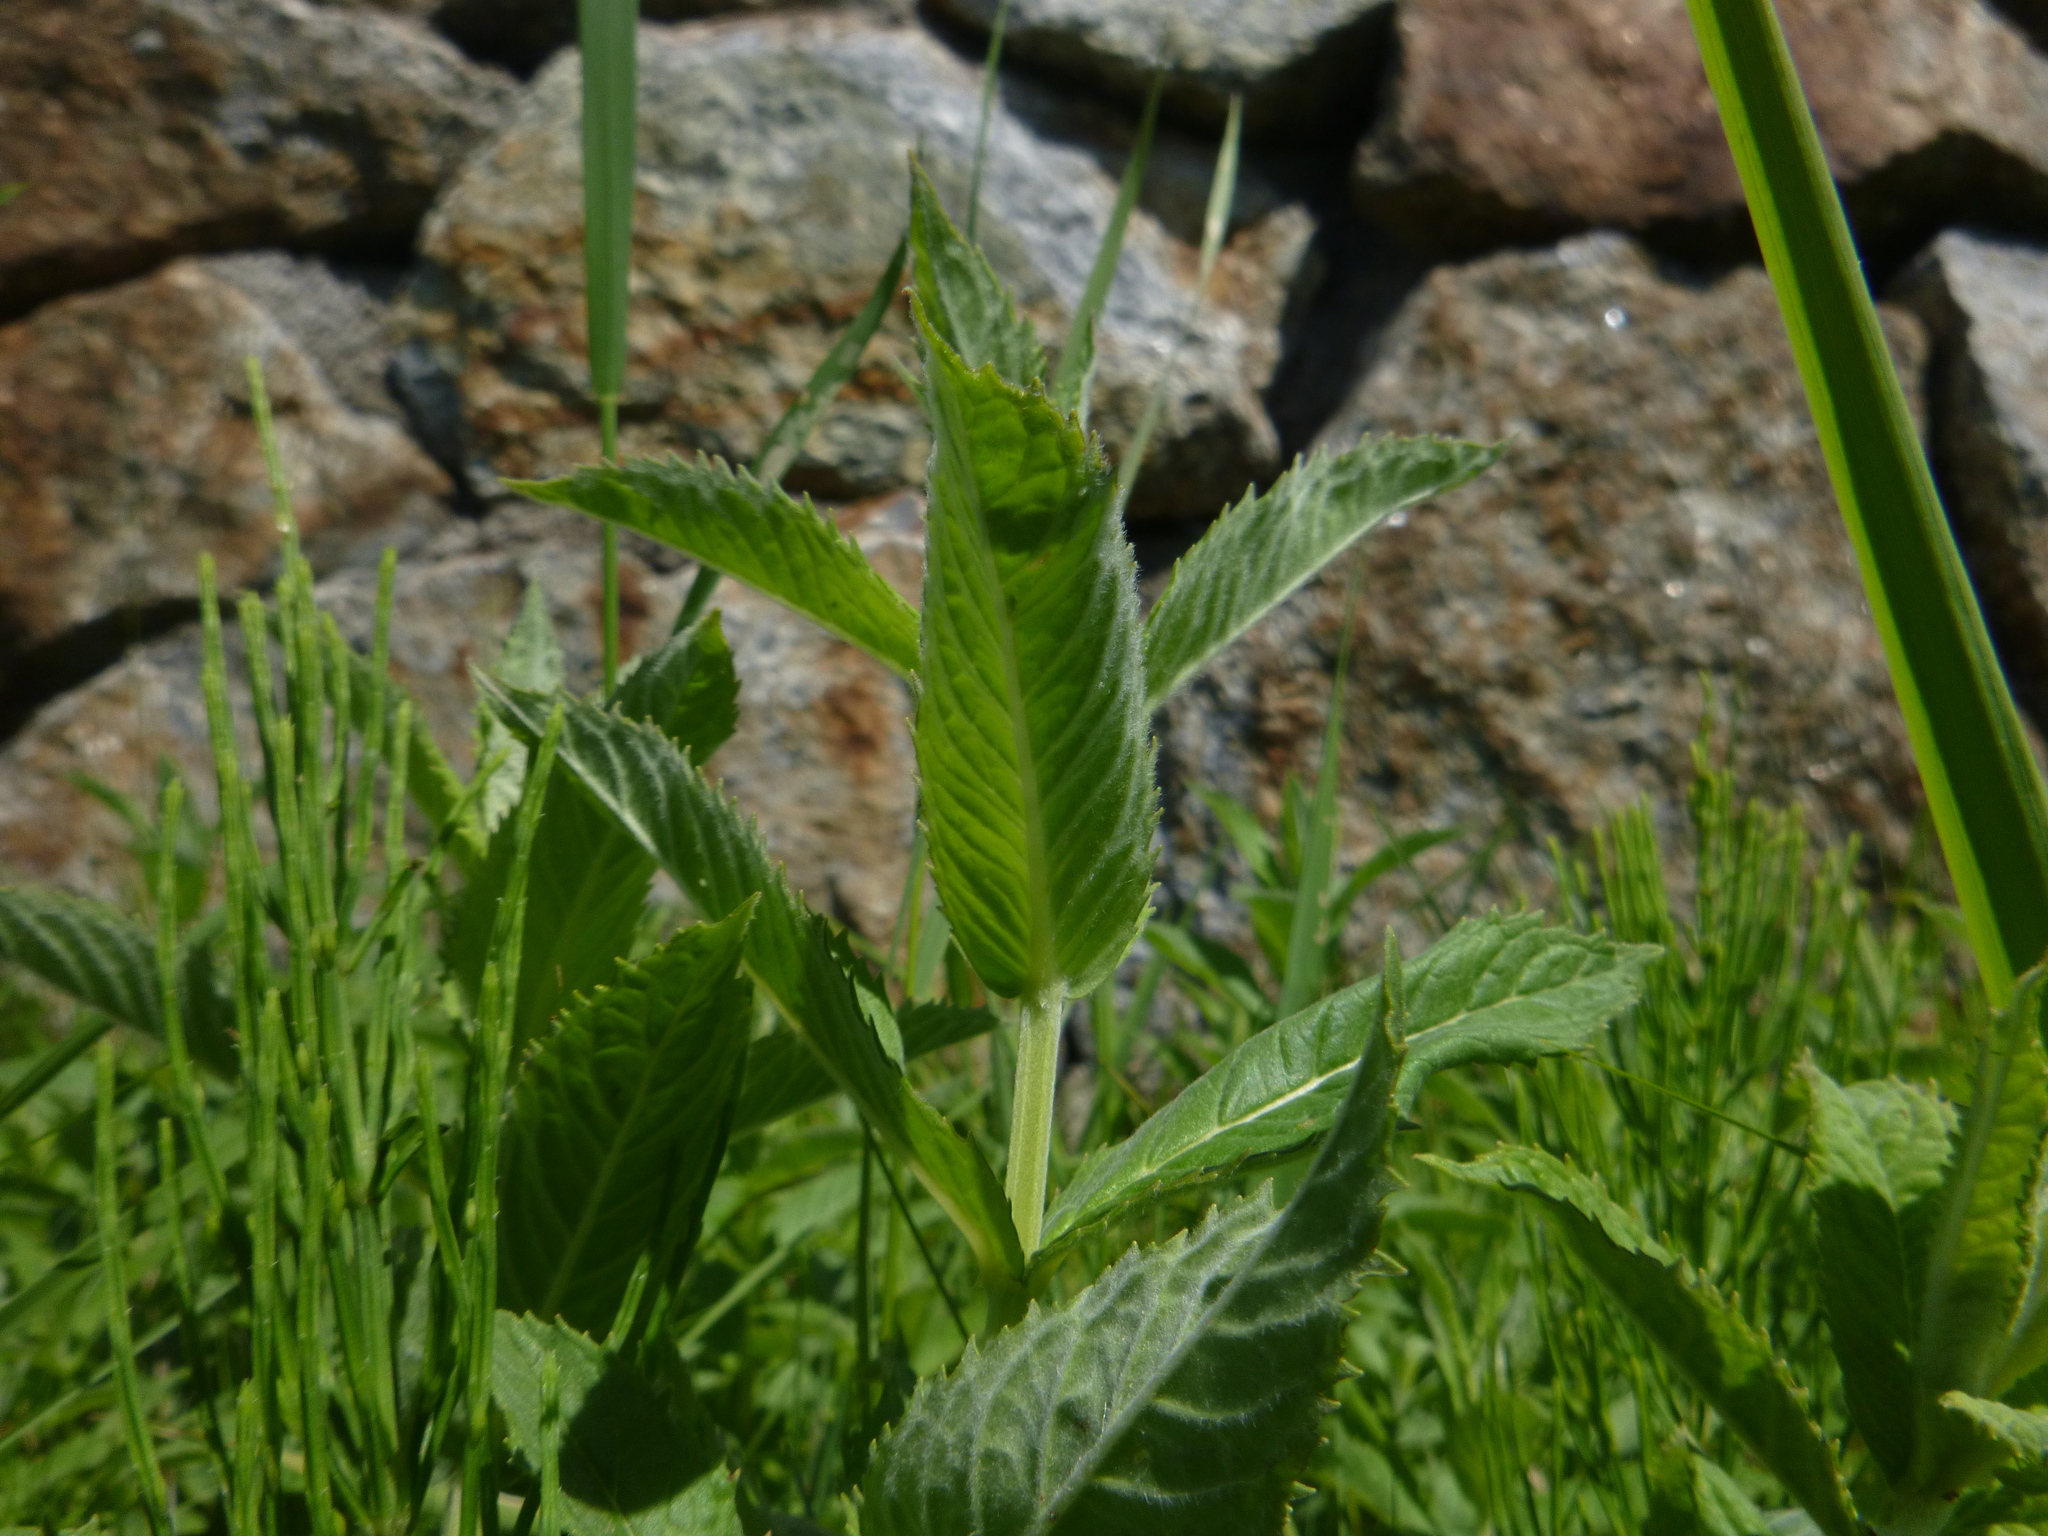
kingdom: Plantae
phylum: Tracheophyta
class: Magnoliopsida
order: Lamiales
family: Lamiaceae
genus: Mentha
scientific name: Mentha longifolia
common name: Horse mint
